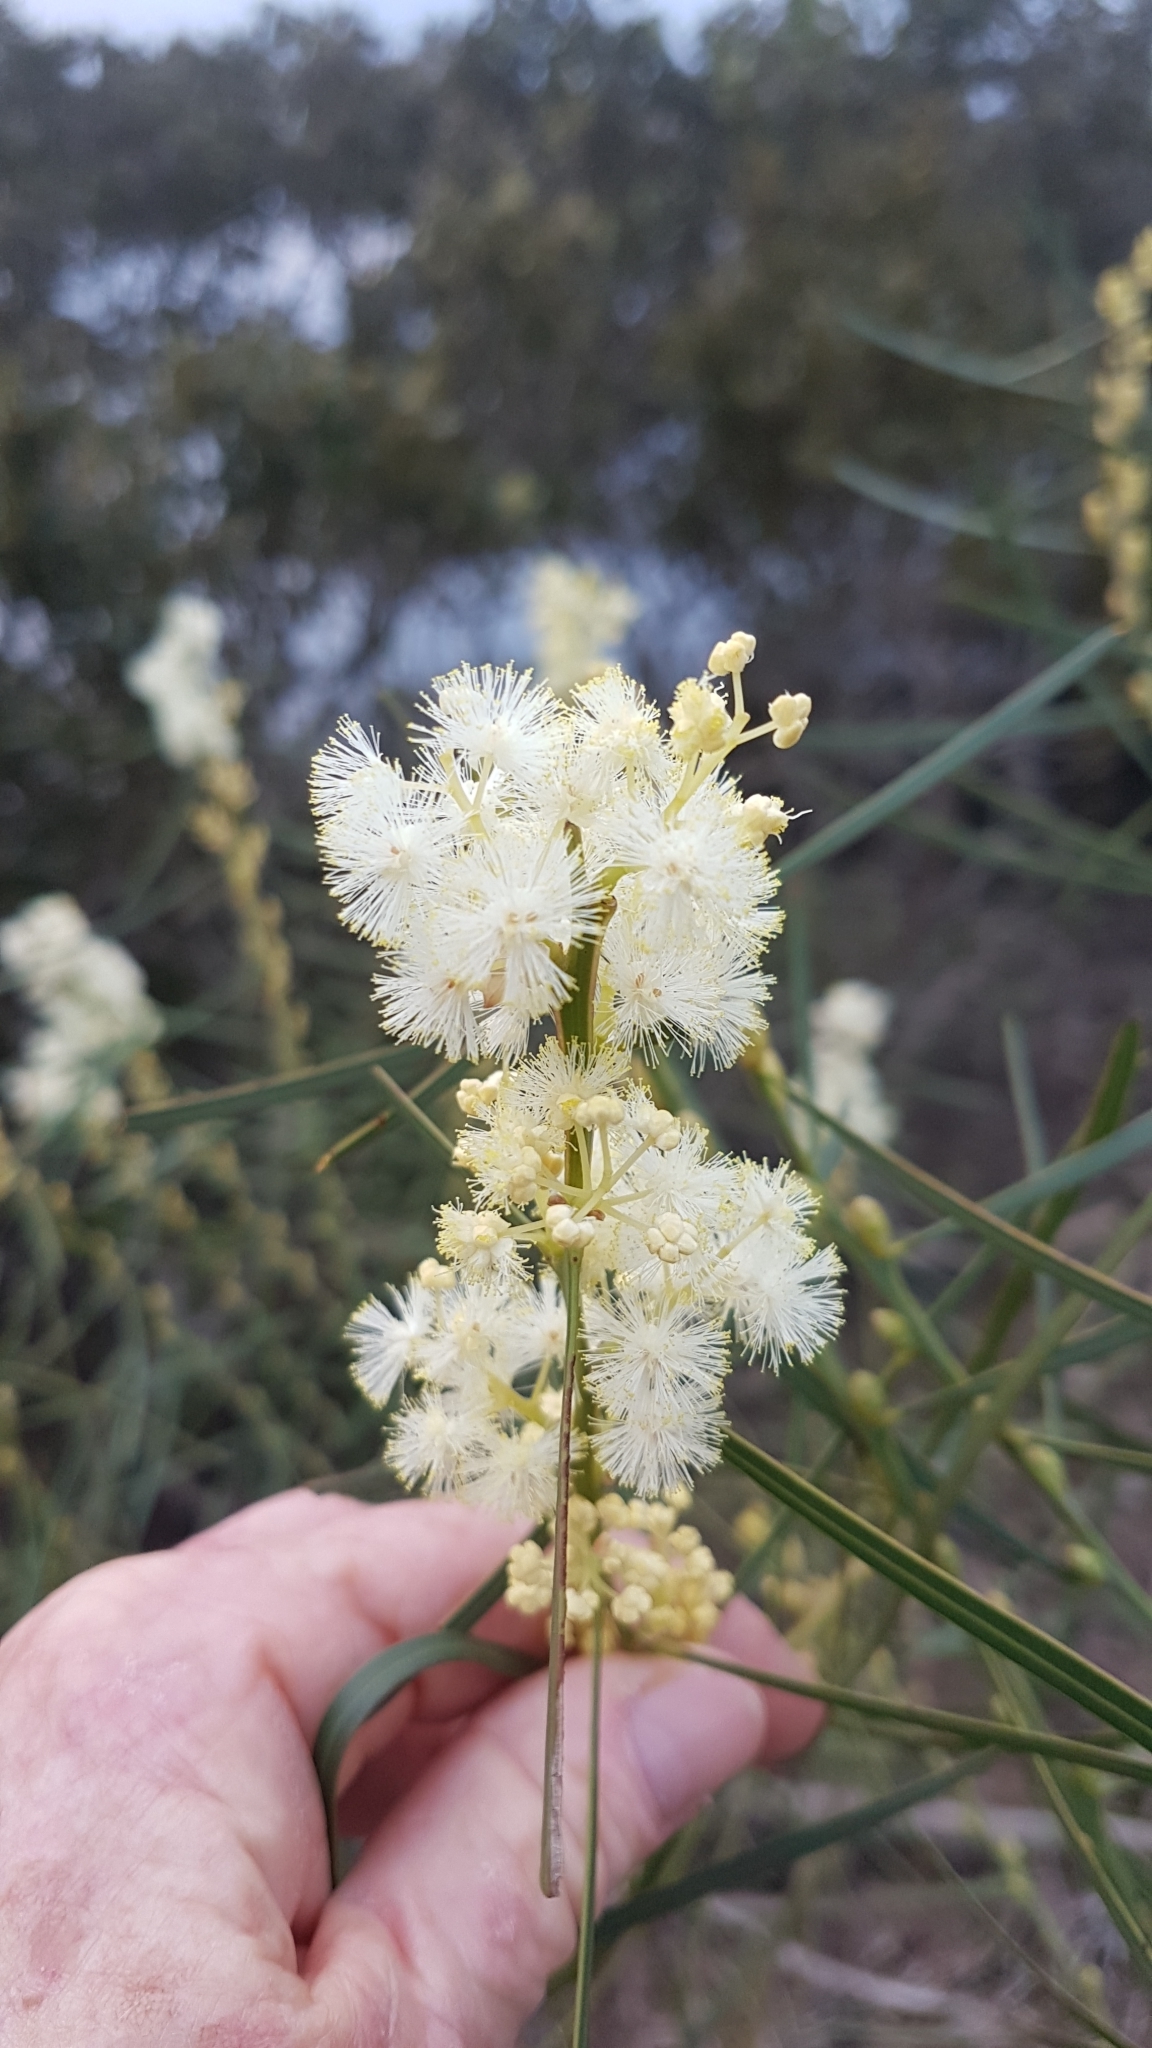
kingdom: Plantae
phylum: Tracheophyta
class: Magnoliopsida
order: Fabales
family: Fabaceae
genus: Acacia
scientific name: Acacia suaveolens
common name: Sweet acacia
